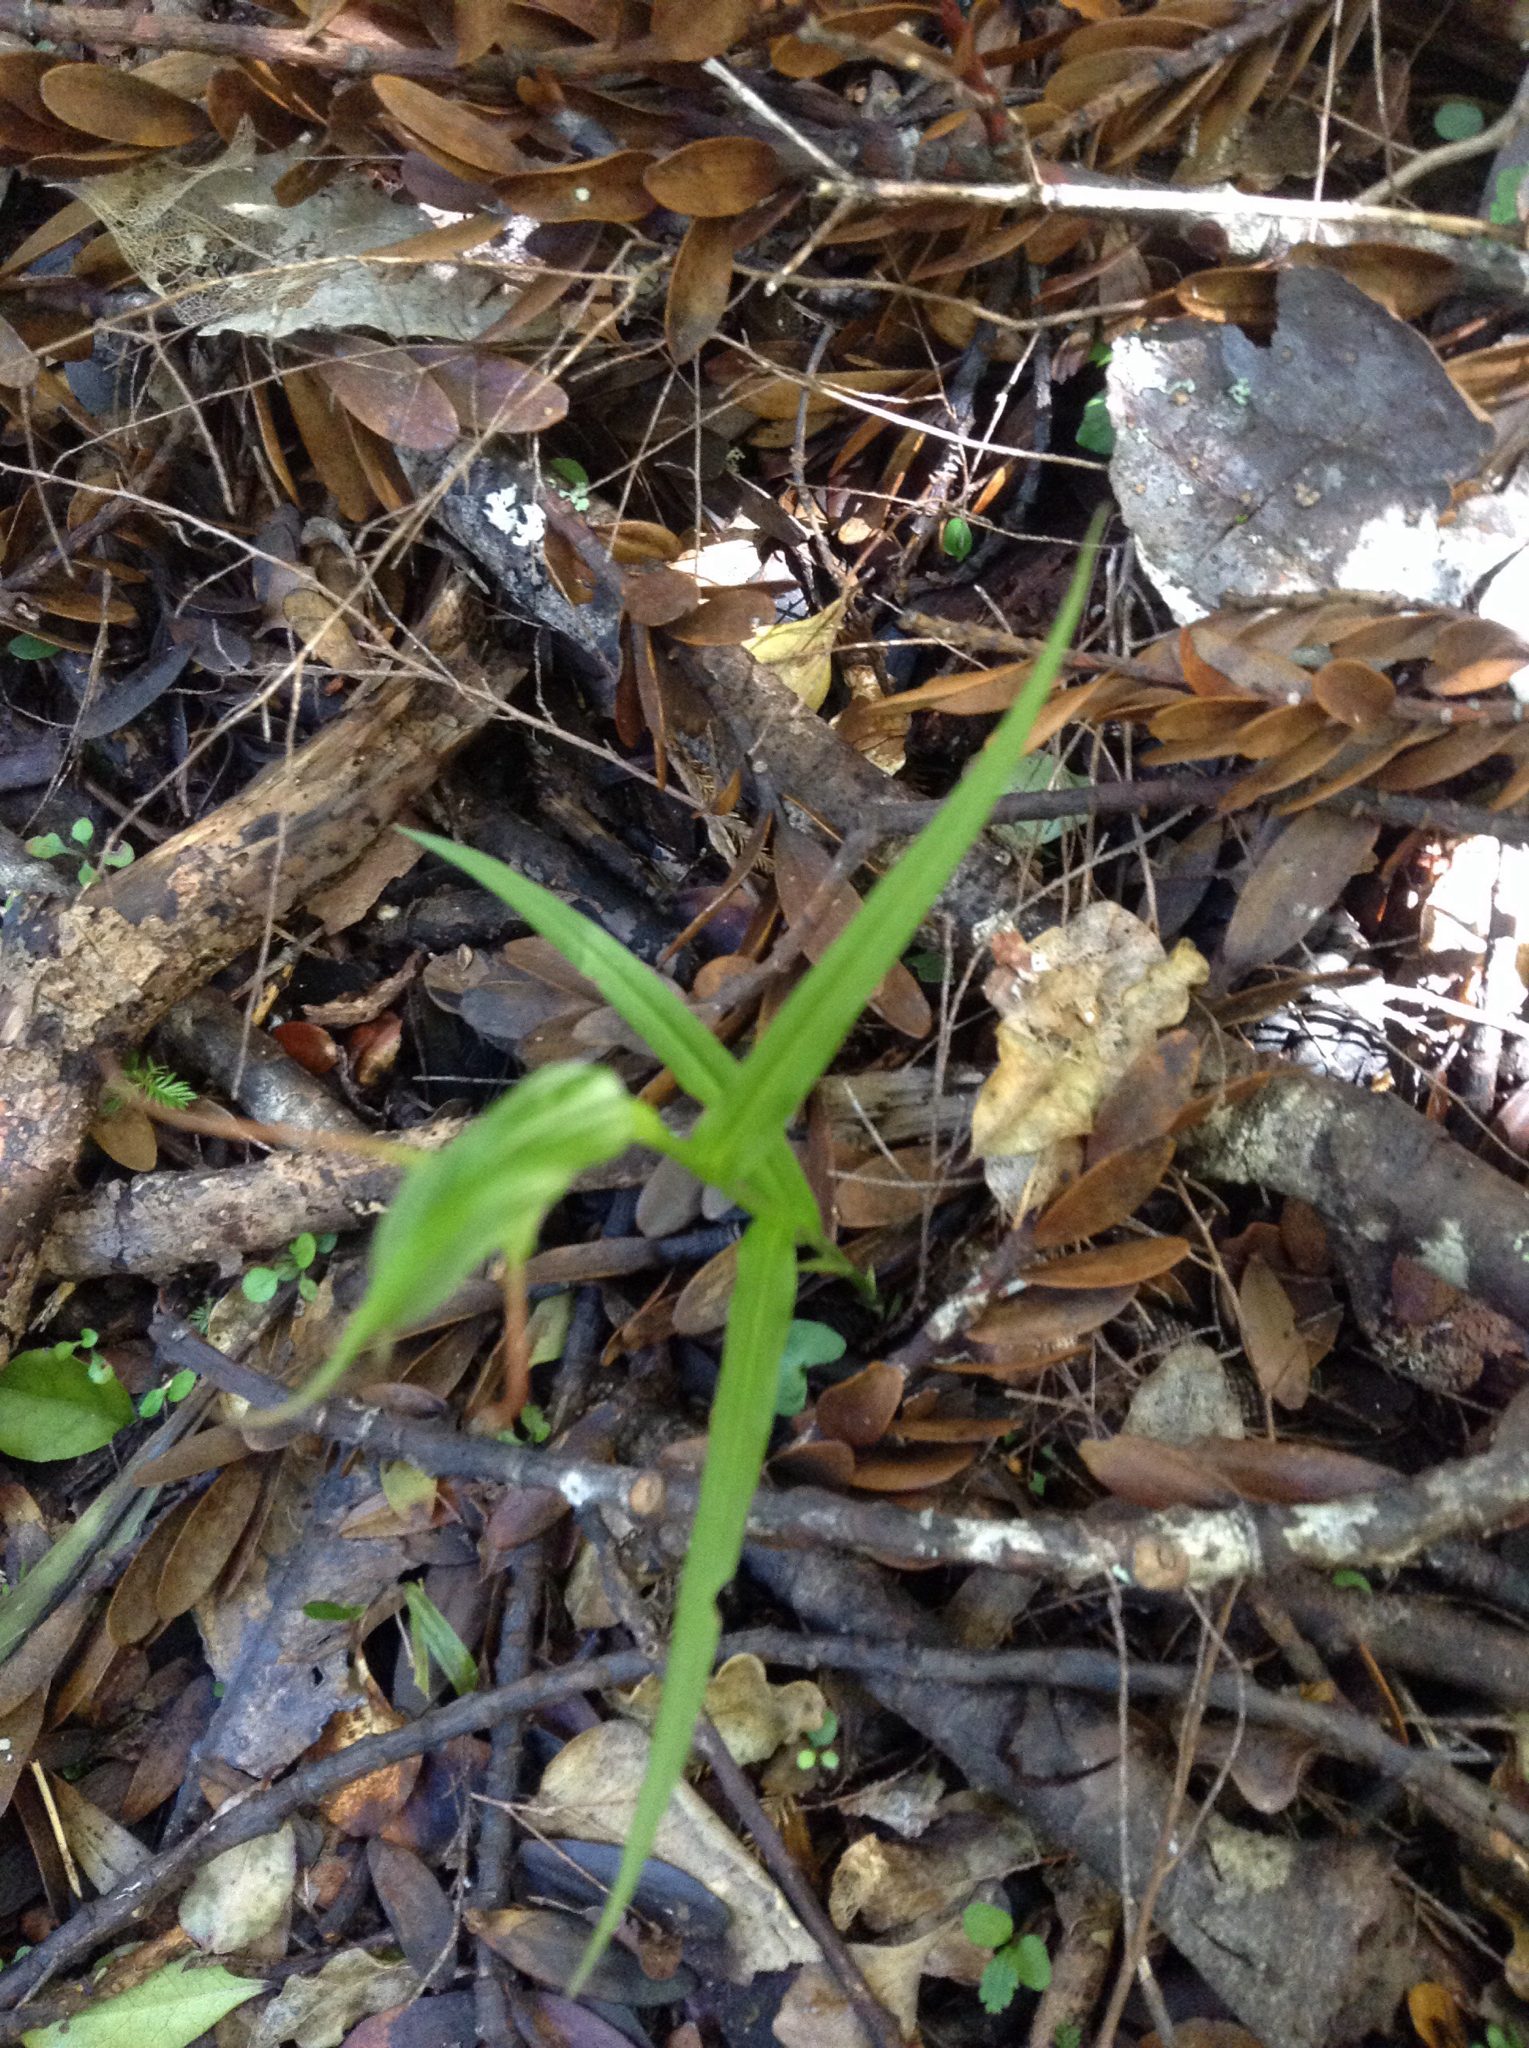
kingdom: Plantae
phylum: Tracheophyta
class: Liliopsida
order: Asparagales
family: Orchidaceae
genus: Pterostylis
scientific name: Pterostylis agathicola
